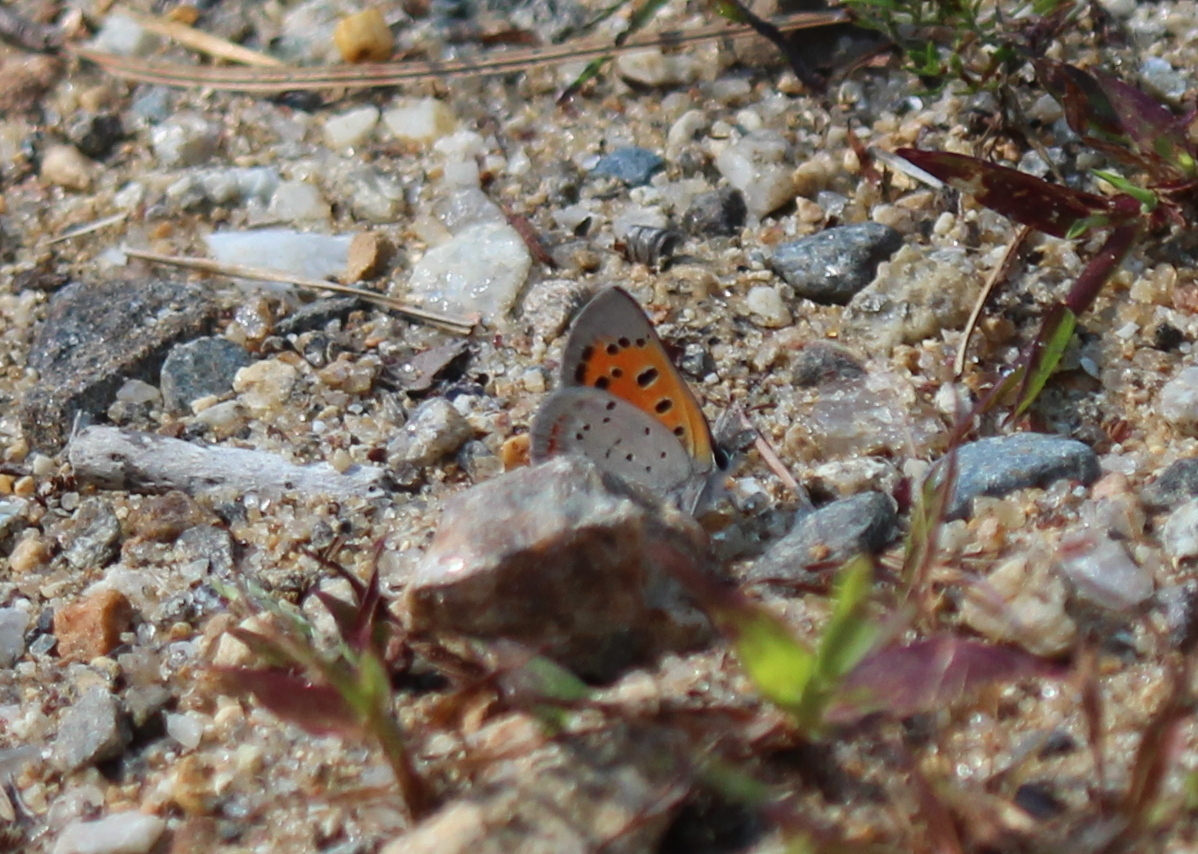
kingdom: Animalia
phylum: Arthropoda
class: Insecta
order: Lepidoptera
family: Lycaenidae
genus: Lycaena
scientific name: Lycaena hypophlaeas
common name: American copper
